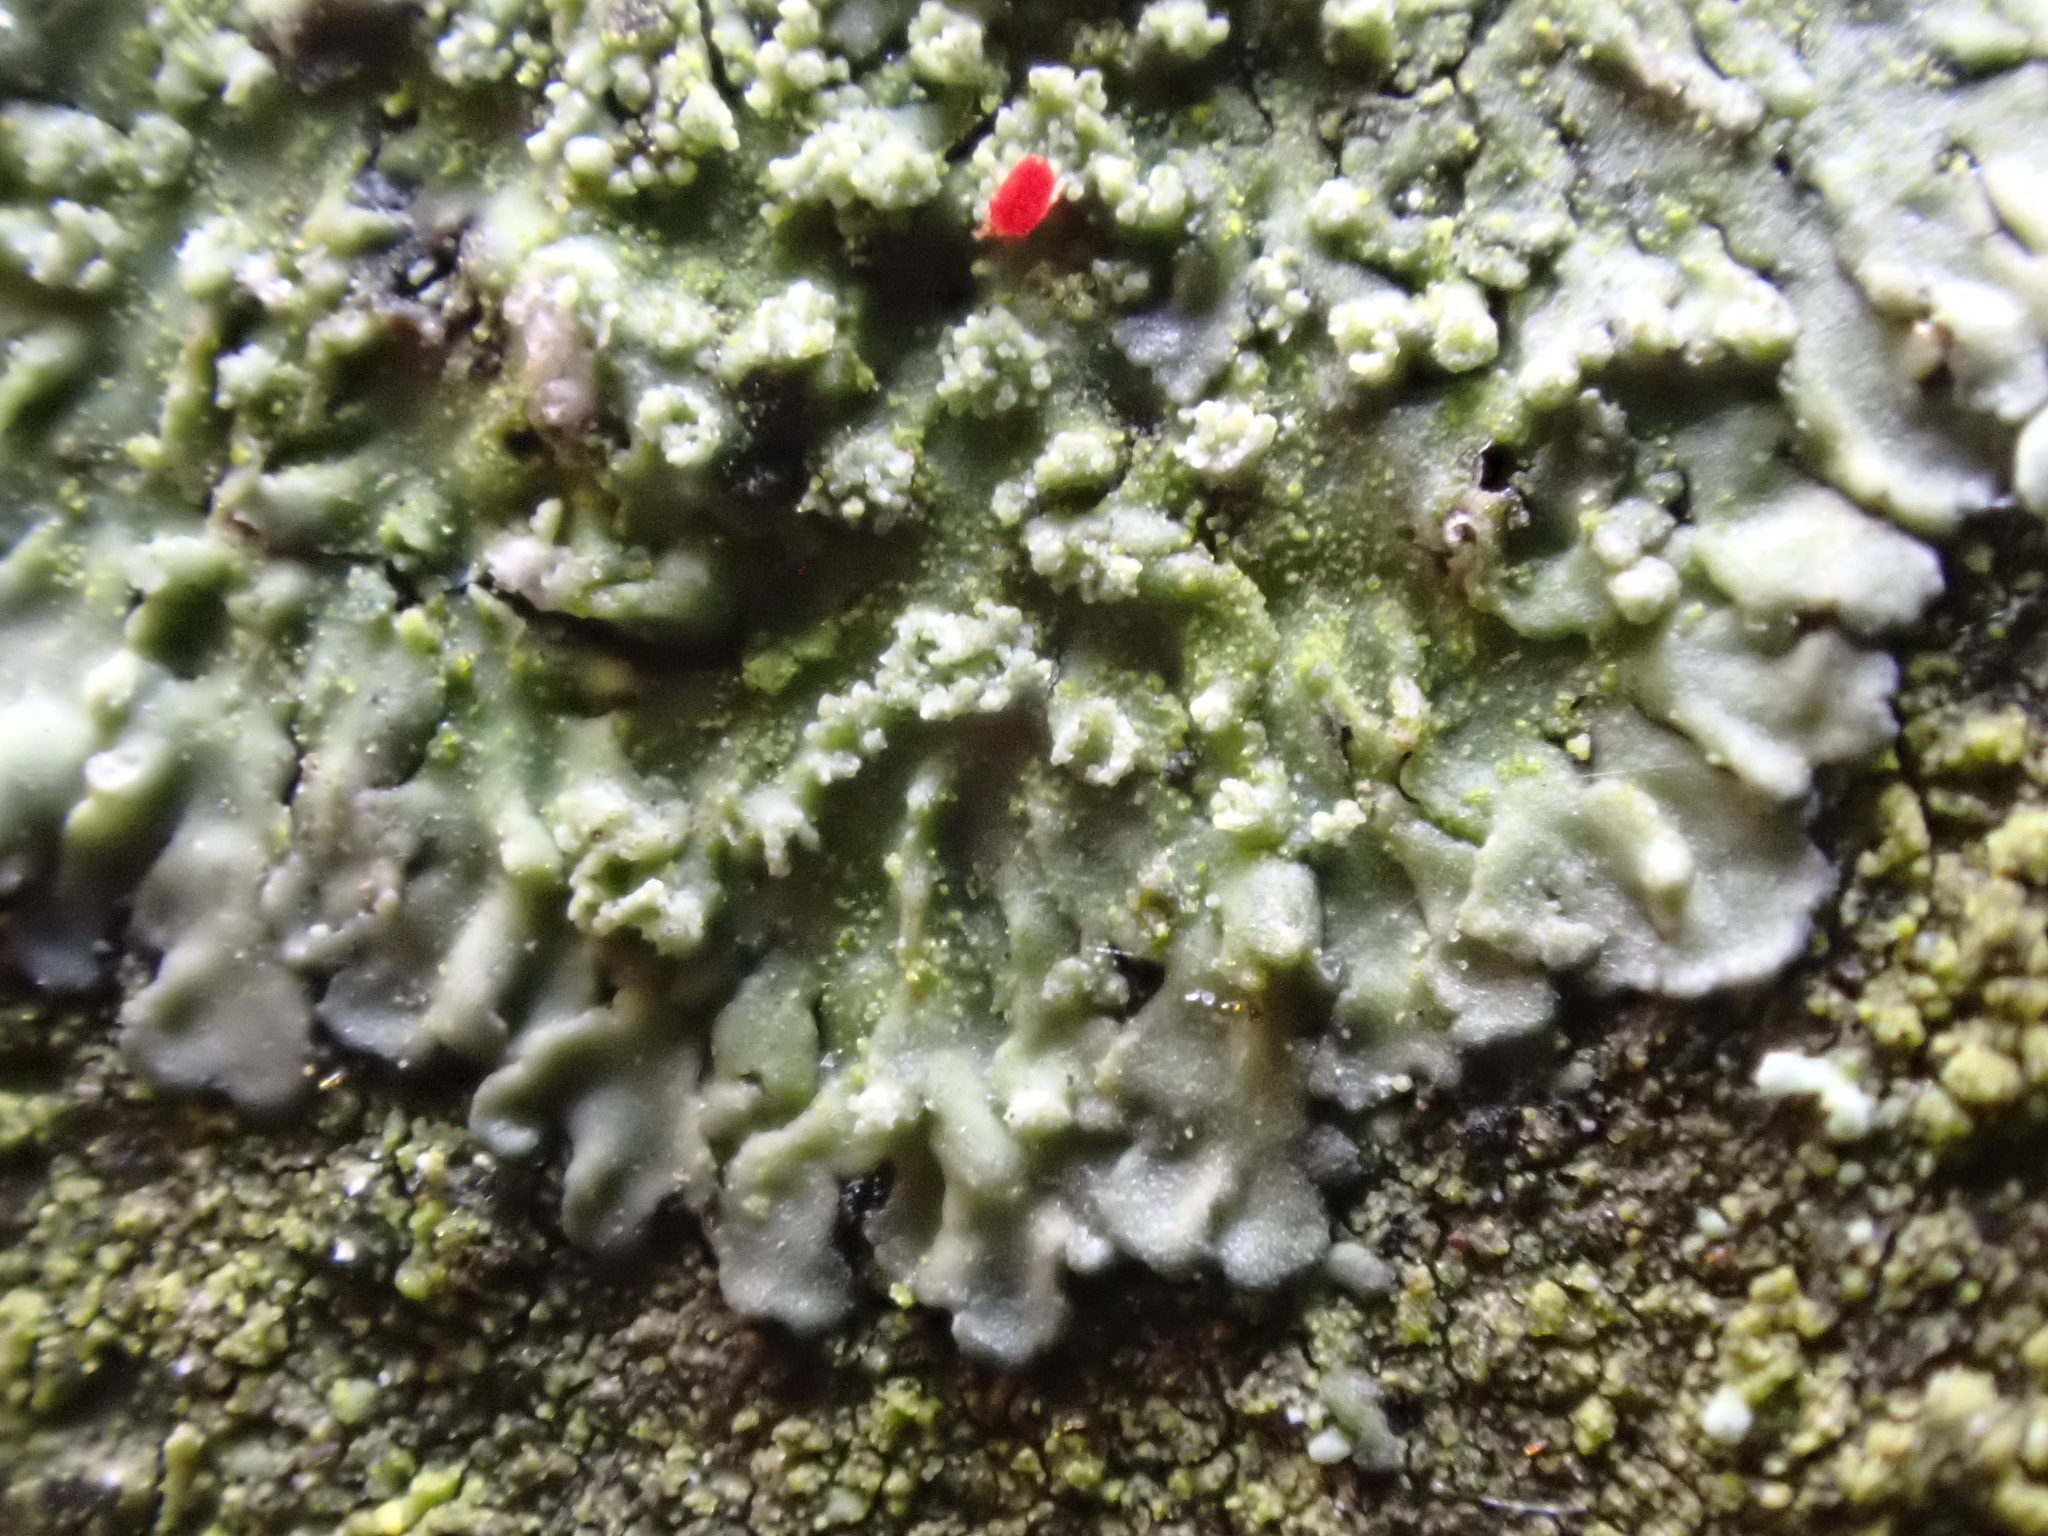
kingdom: Fungi
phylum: Ascomycota
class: Lecanoromycetes
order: Caliciales
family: Physciaceae
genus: Hyperphyscia
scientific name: Hyperphyscia adglutinata
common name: Grainy shadow-crust lichen
